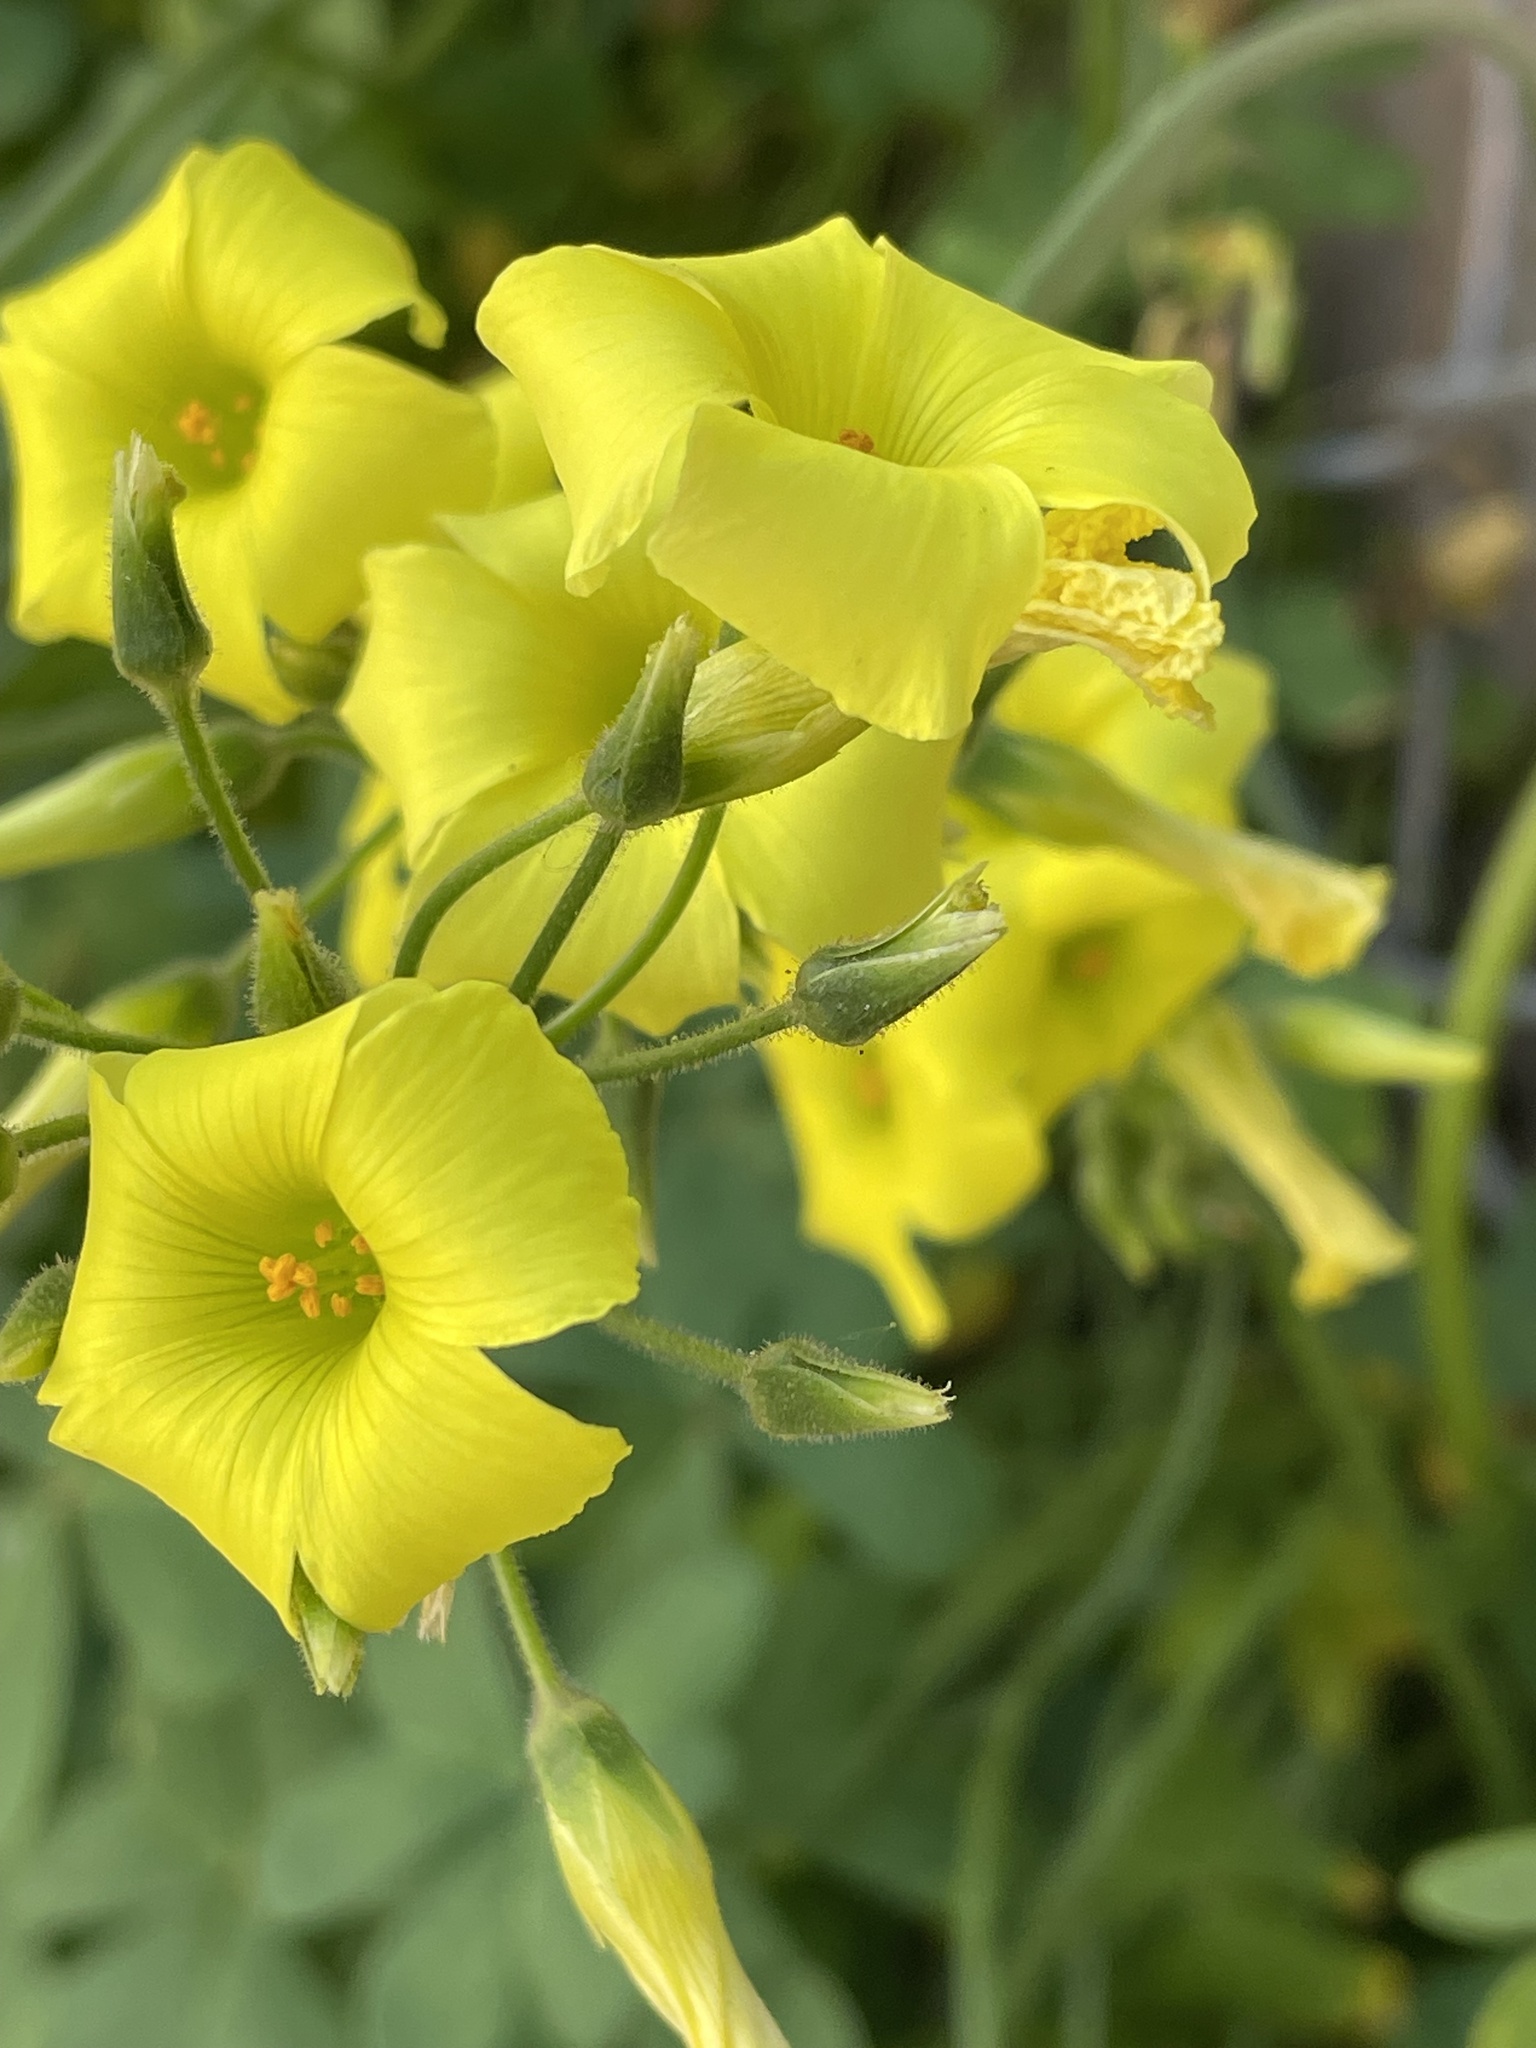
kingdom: Plantae
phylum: Tracheophyta
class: Magnoliopsida
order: Oxalidales
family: Oxalidaceae
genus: Oxalis
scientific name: Oxalis pes-caprae
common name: Bermuda-buttercup
